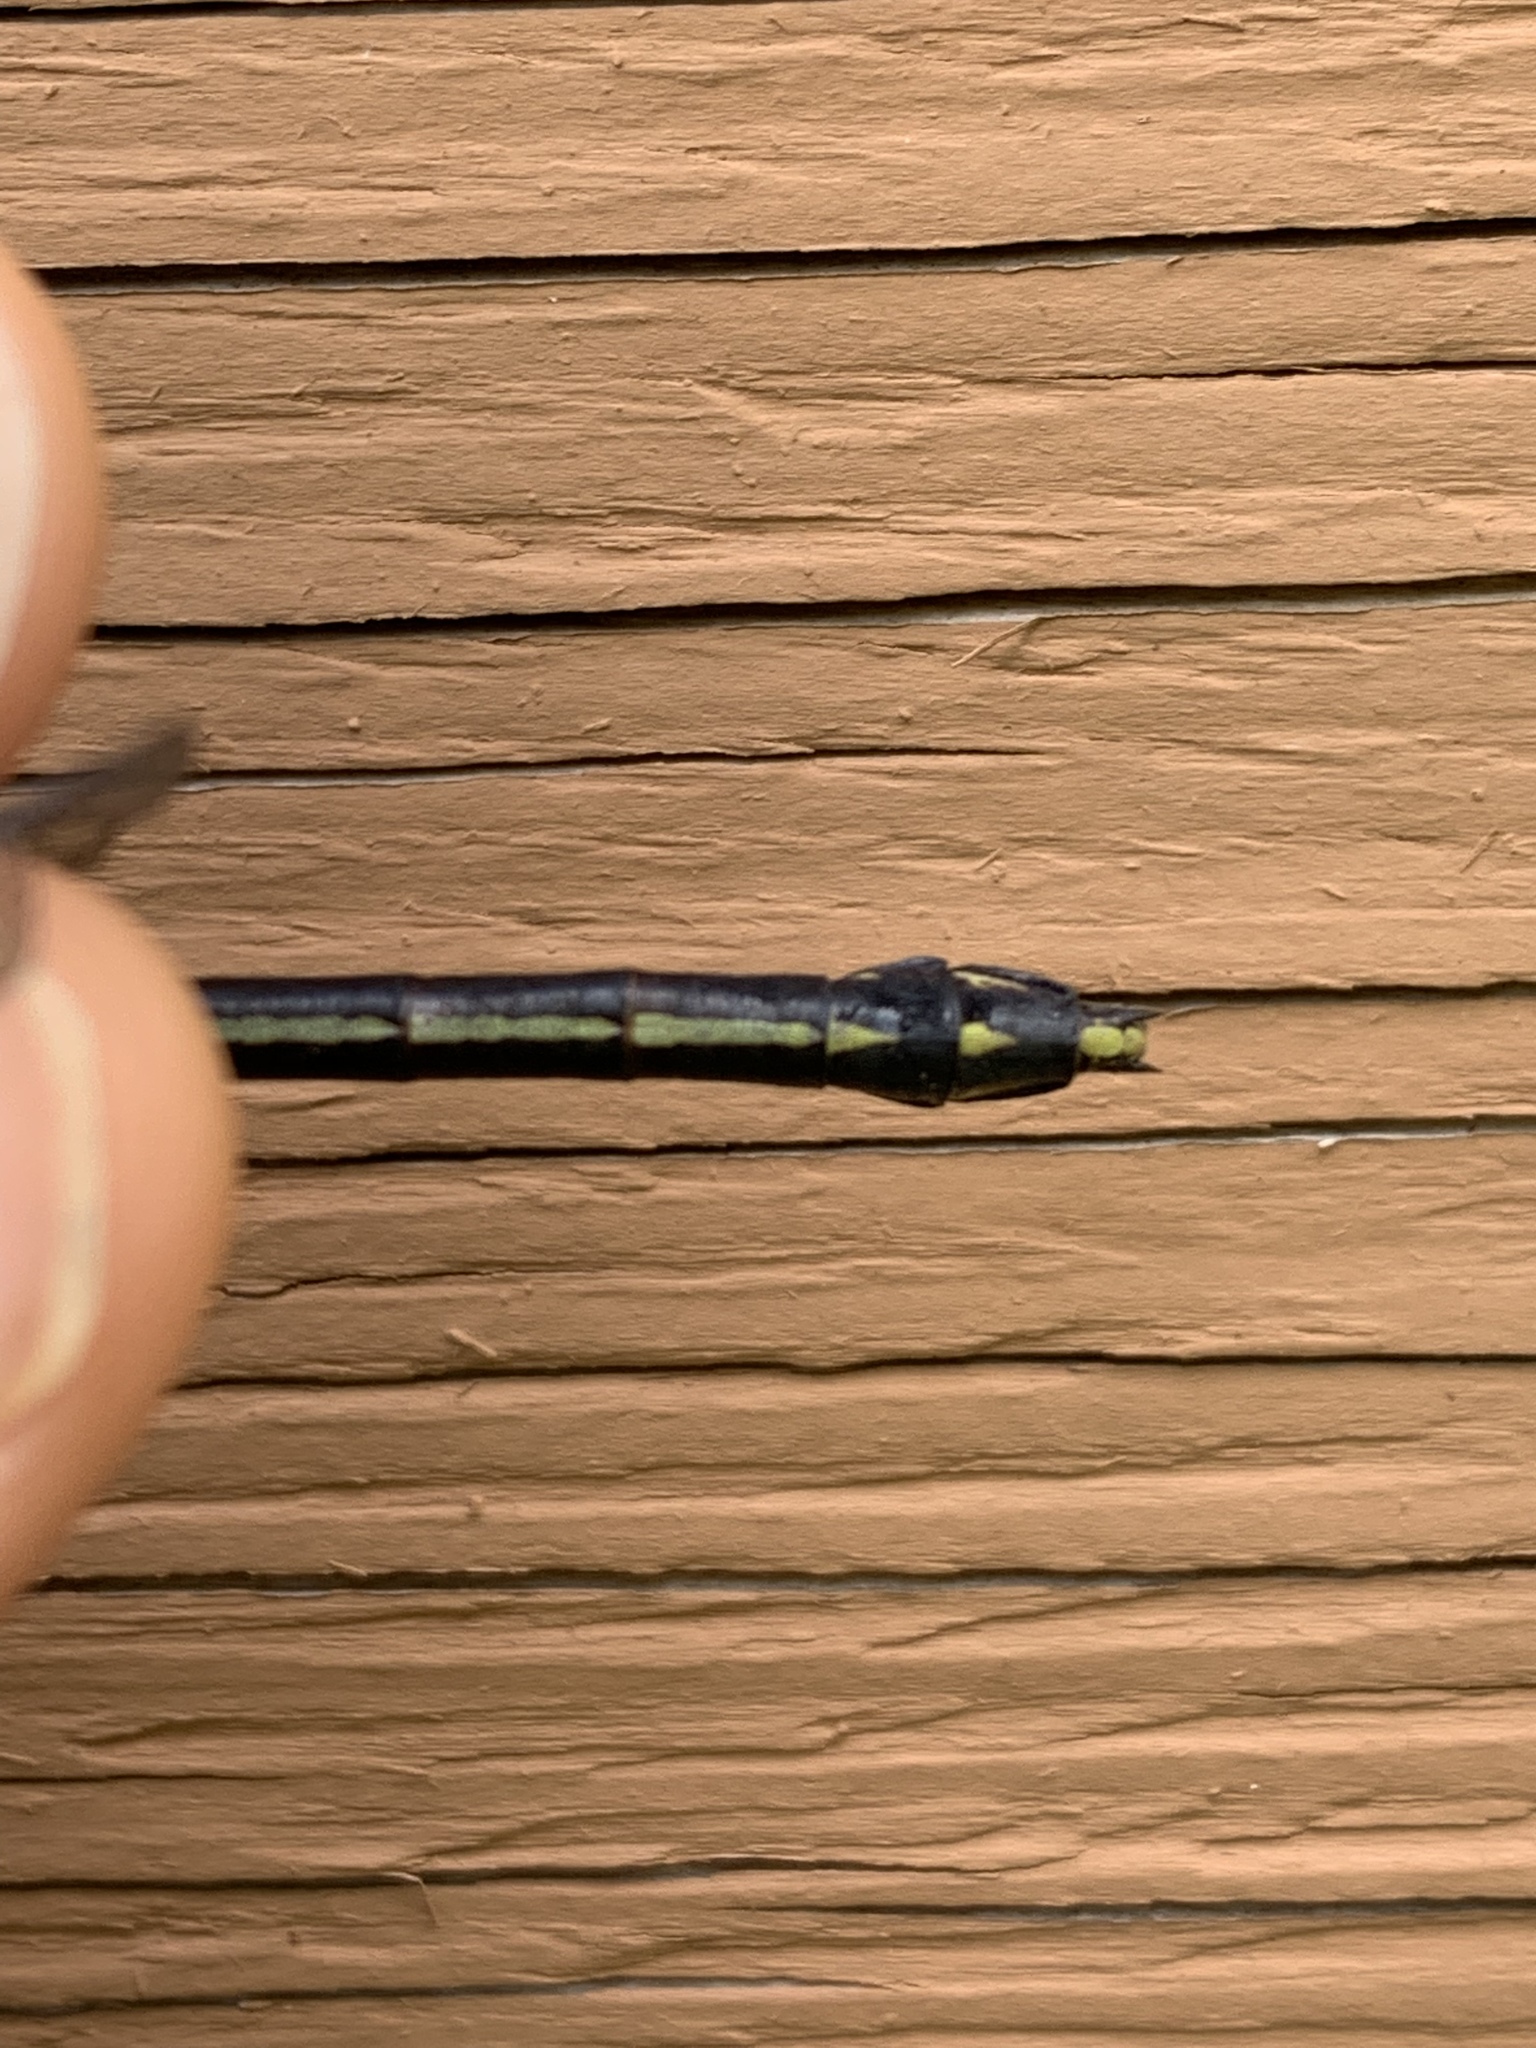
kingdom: Animalia
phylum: Arthropoda
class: Insecta
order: Odonata
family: Gomphidae
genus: Dromogomphus
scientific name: Dromogomphus spinosus
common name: Black-shouldered spinyleg
